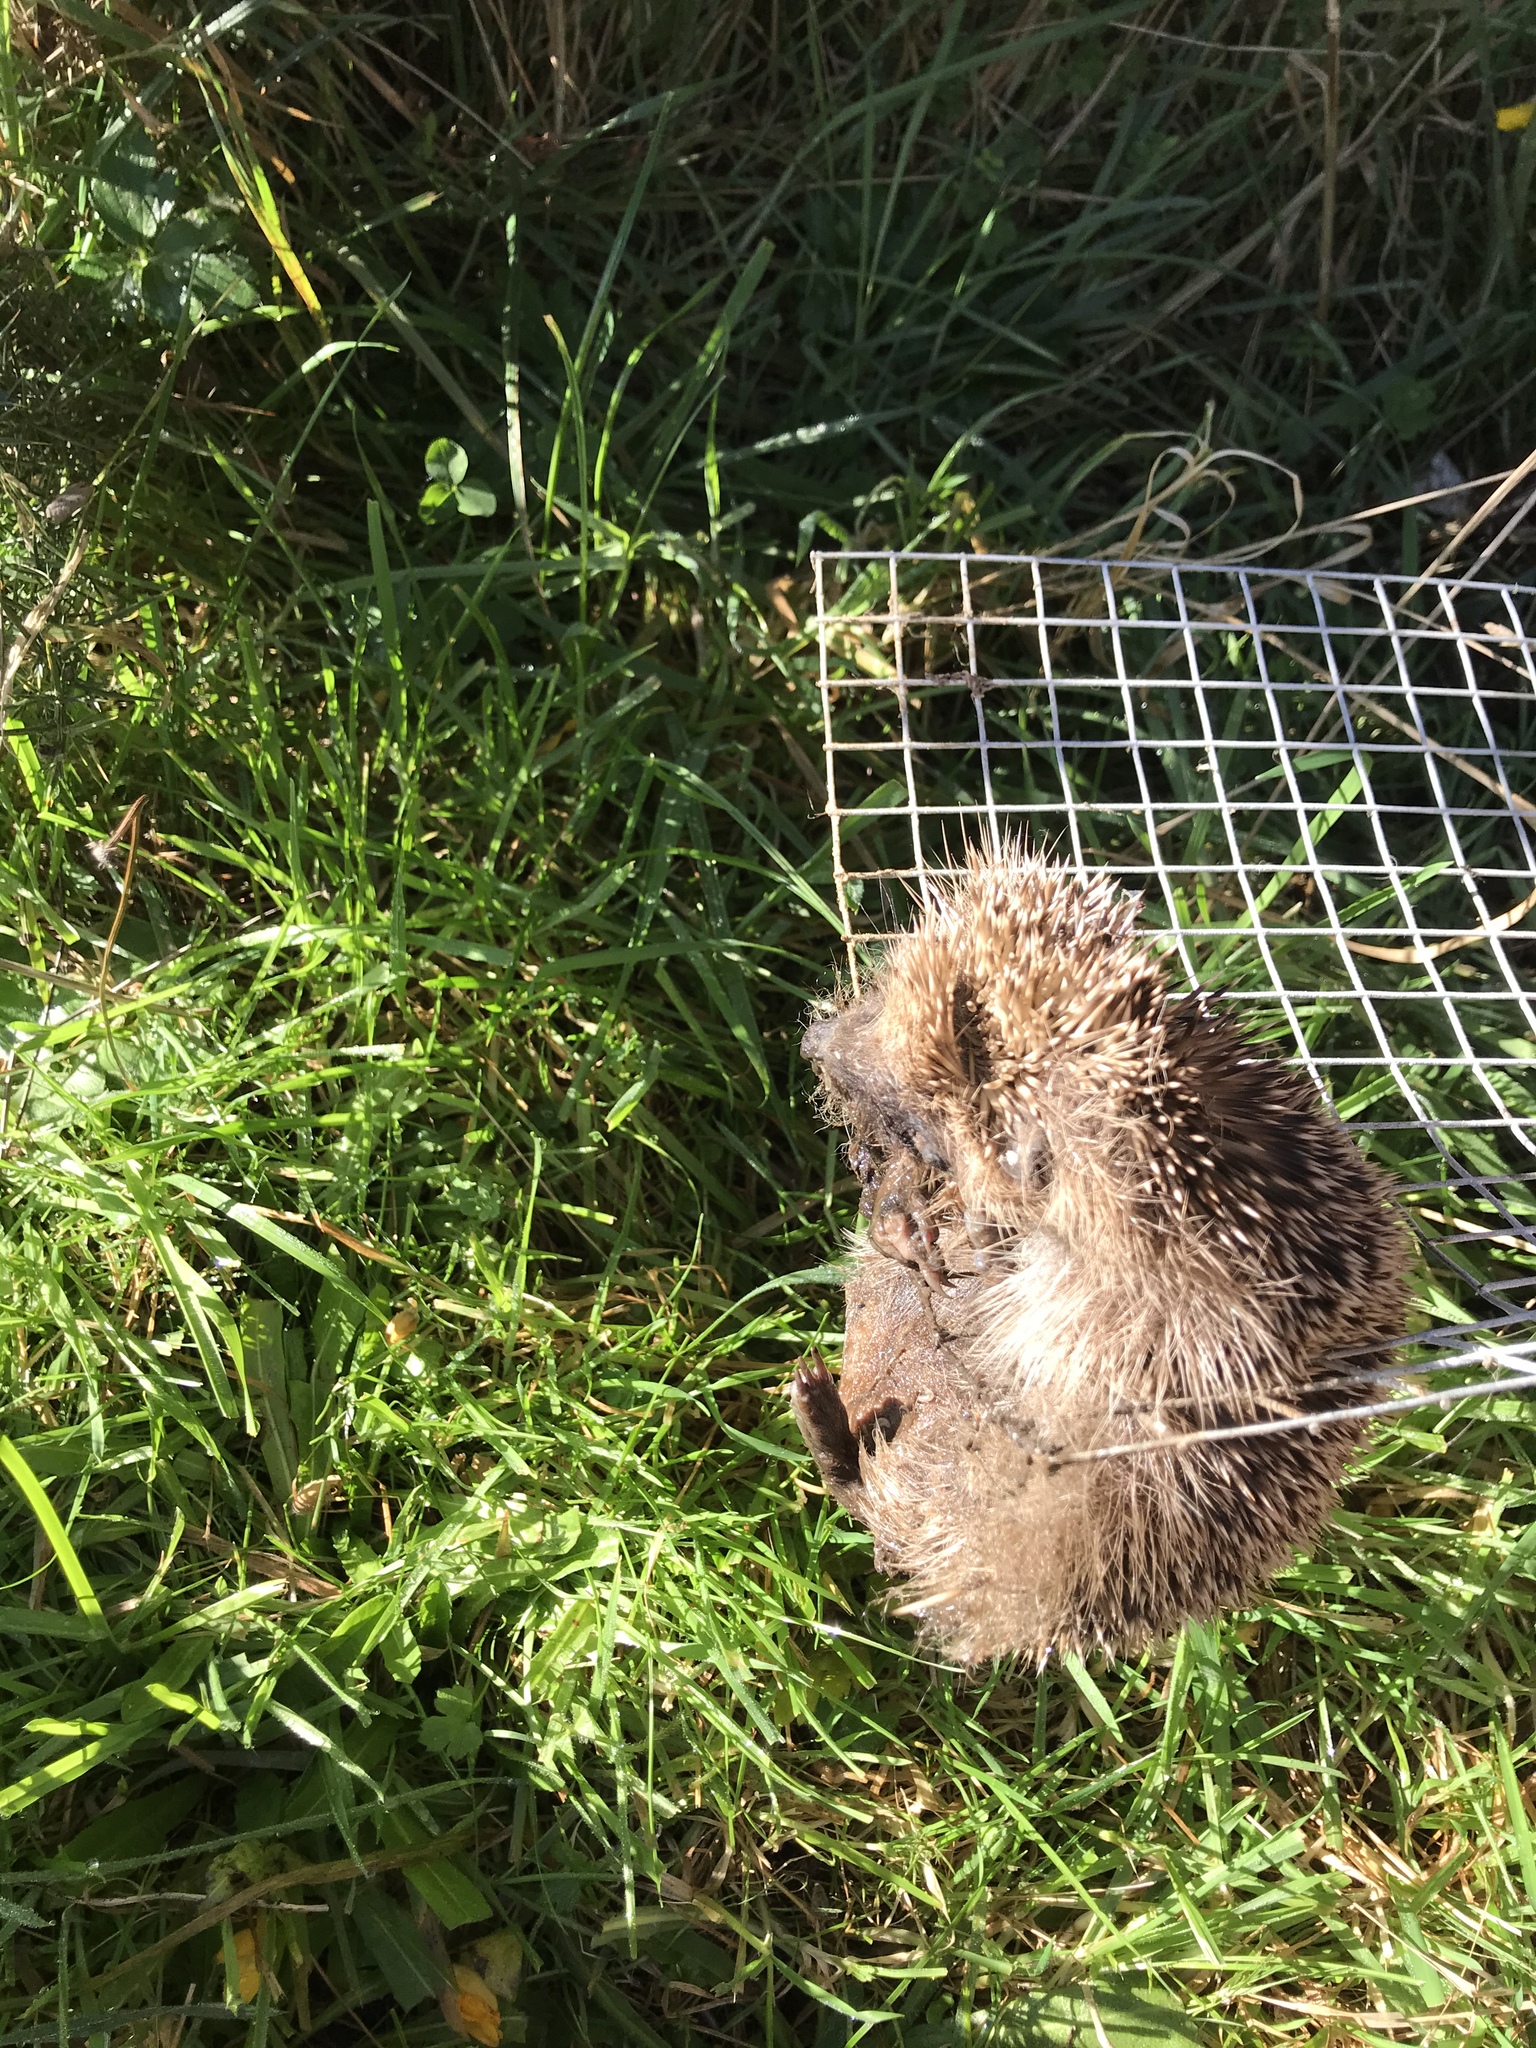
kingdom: Animalia
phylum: Chordata
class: Mammalia
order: Erinaceomorpha
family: Erinaceidae
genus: Erinaceus
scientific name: Erinaceus europaeus
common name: West european hedgehog
